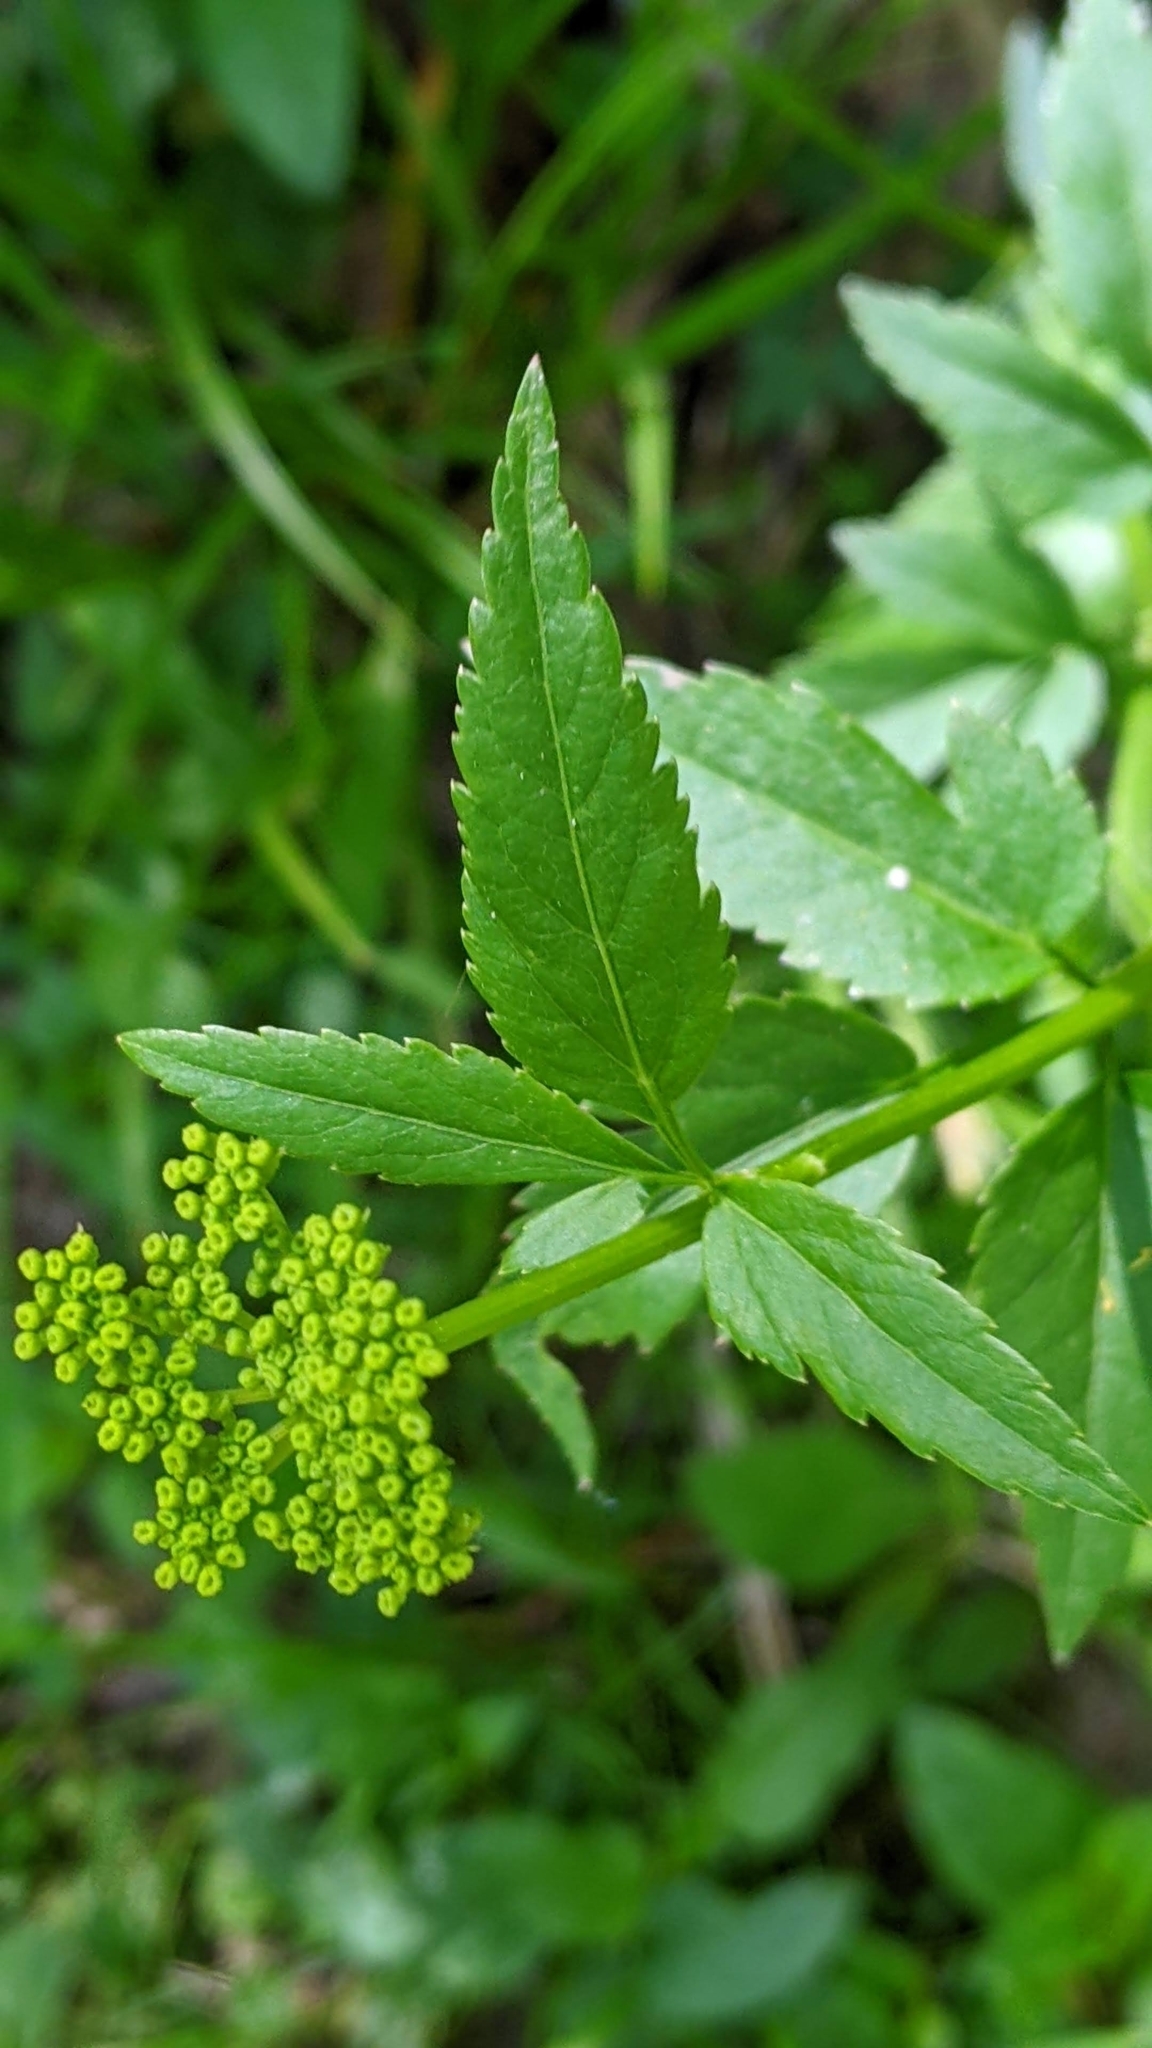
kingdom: Plantae
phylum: Tracheophyta
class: Magnoliopsida
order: Apiales
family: Apiaceae
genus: Zizia
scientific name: Zizia aurea
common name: Golden alexanders
